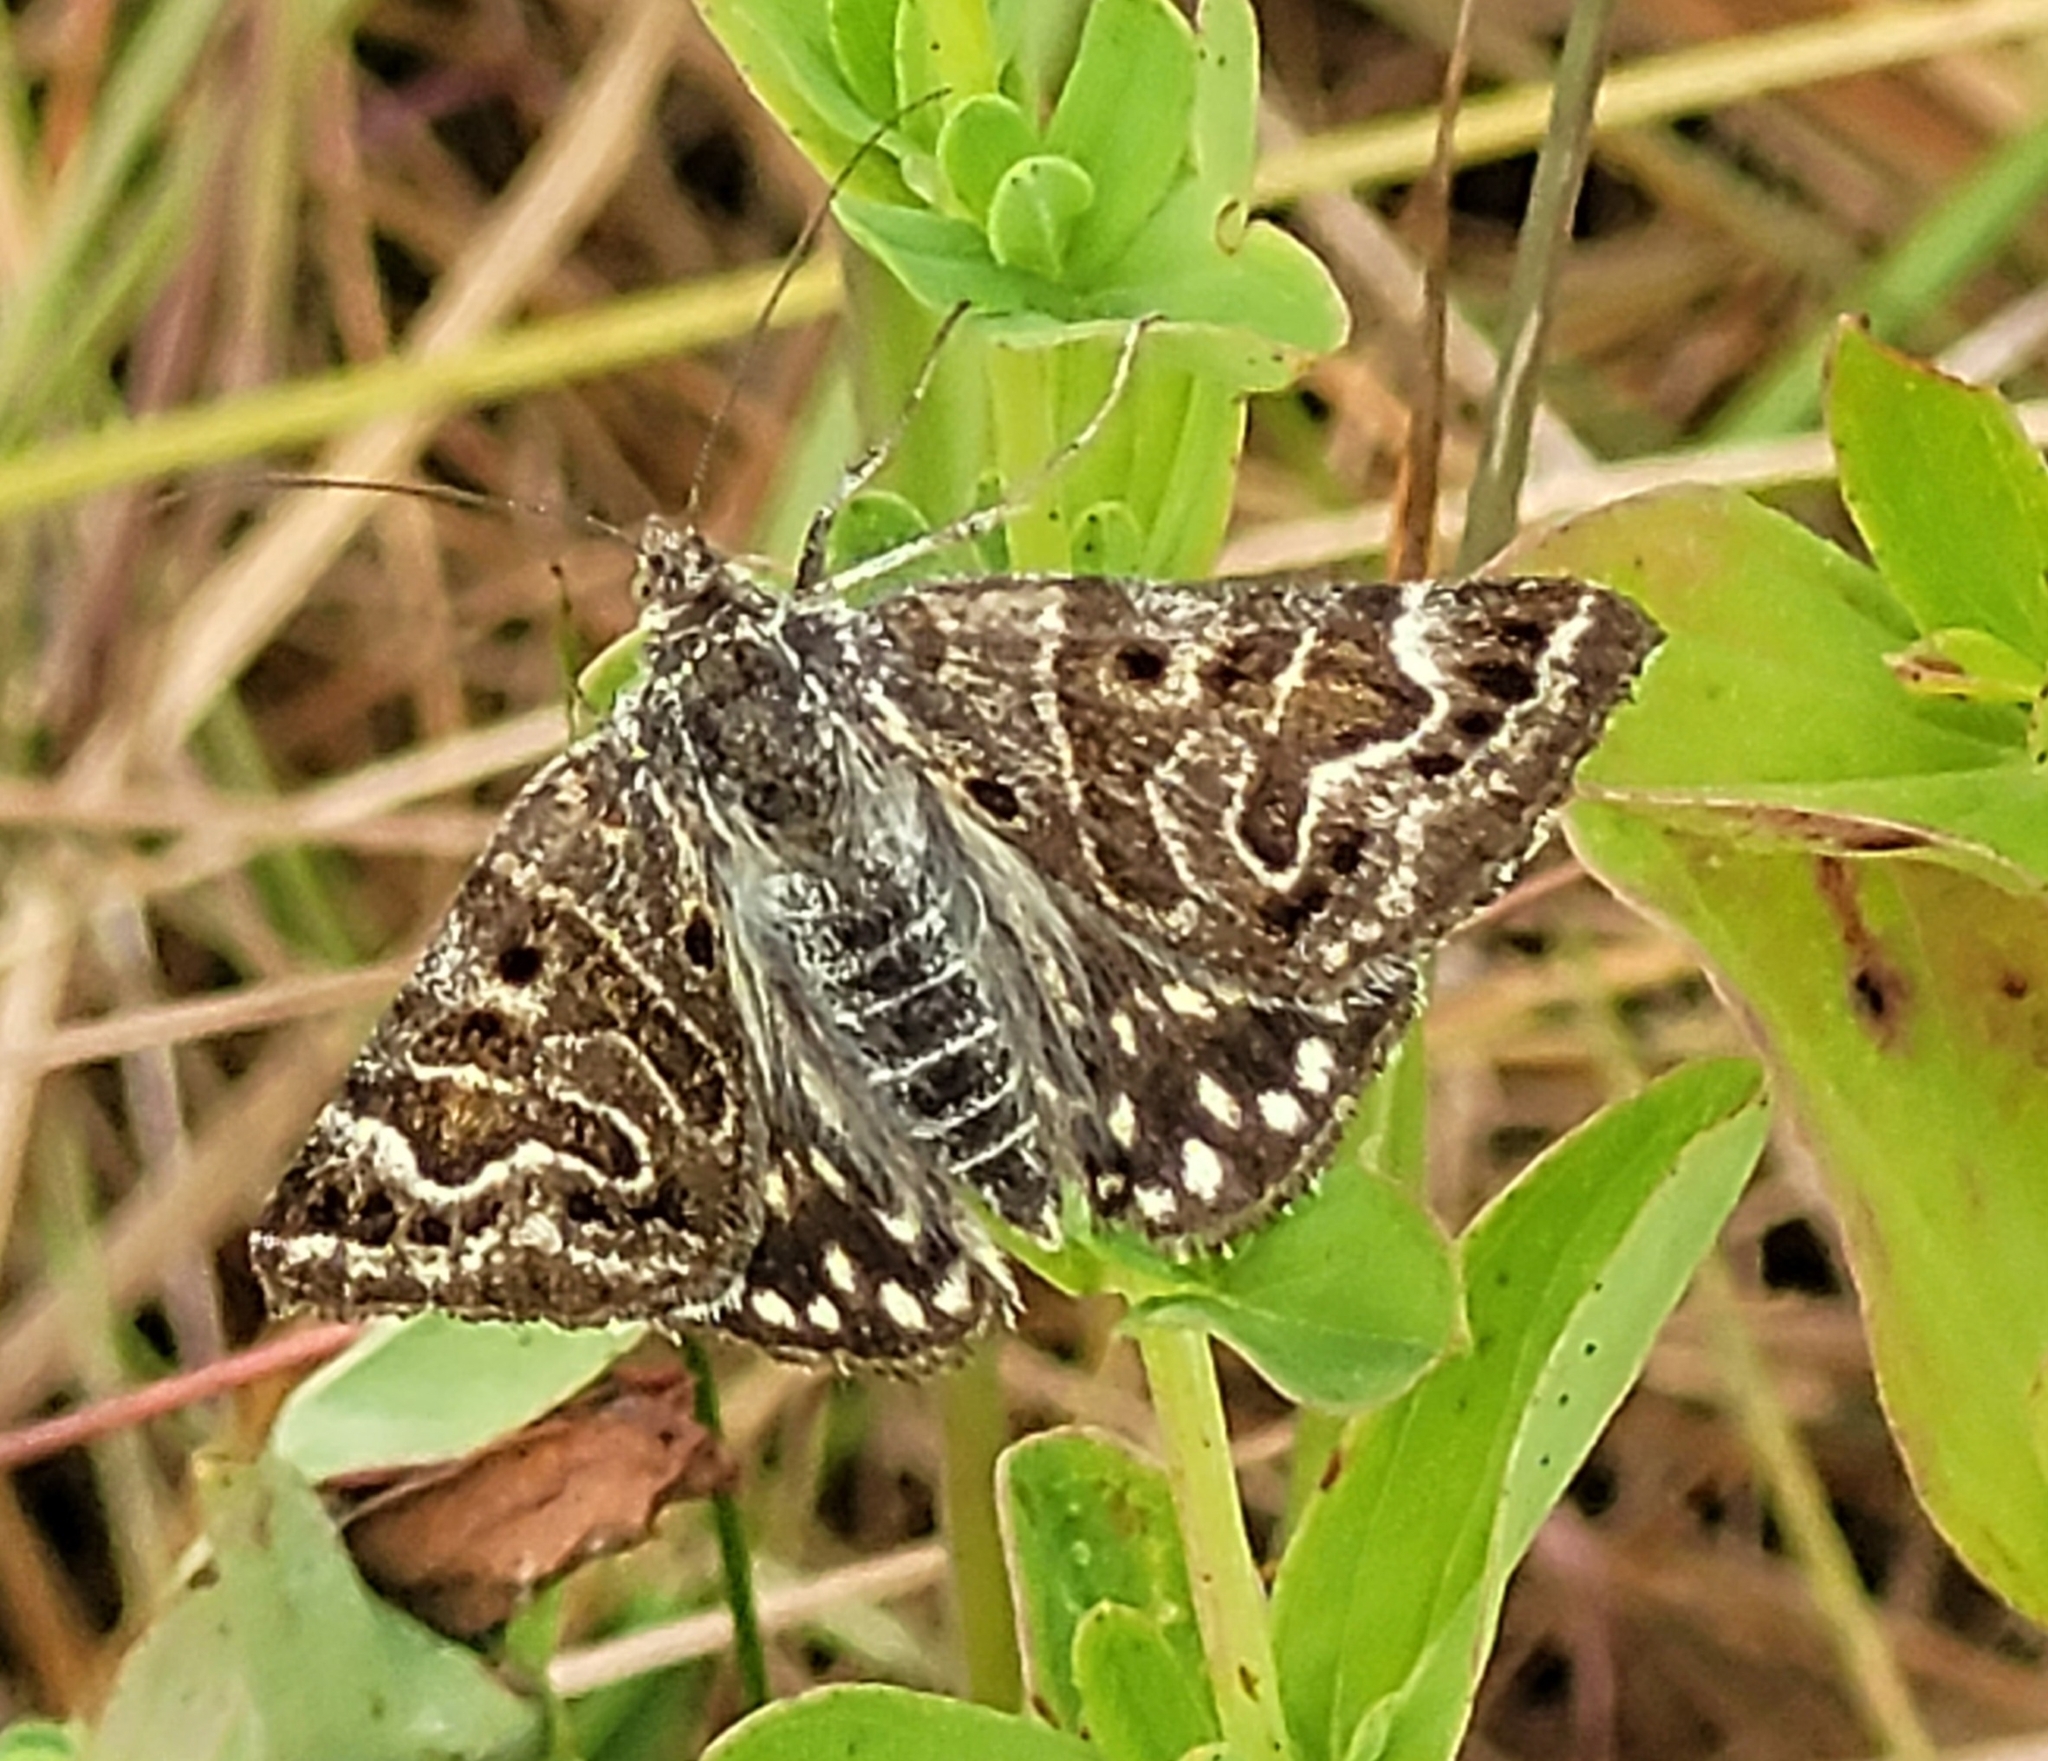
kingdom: Animalia
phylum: Arthropoda
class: Insecta
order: Lepidoptera
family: Erebidae
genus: Callistege
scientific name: Callistege mi
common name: Mother shipton
